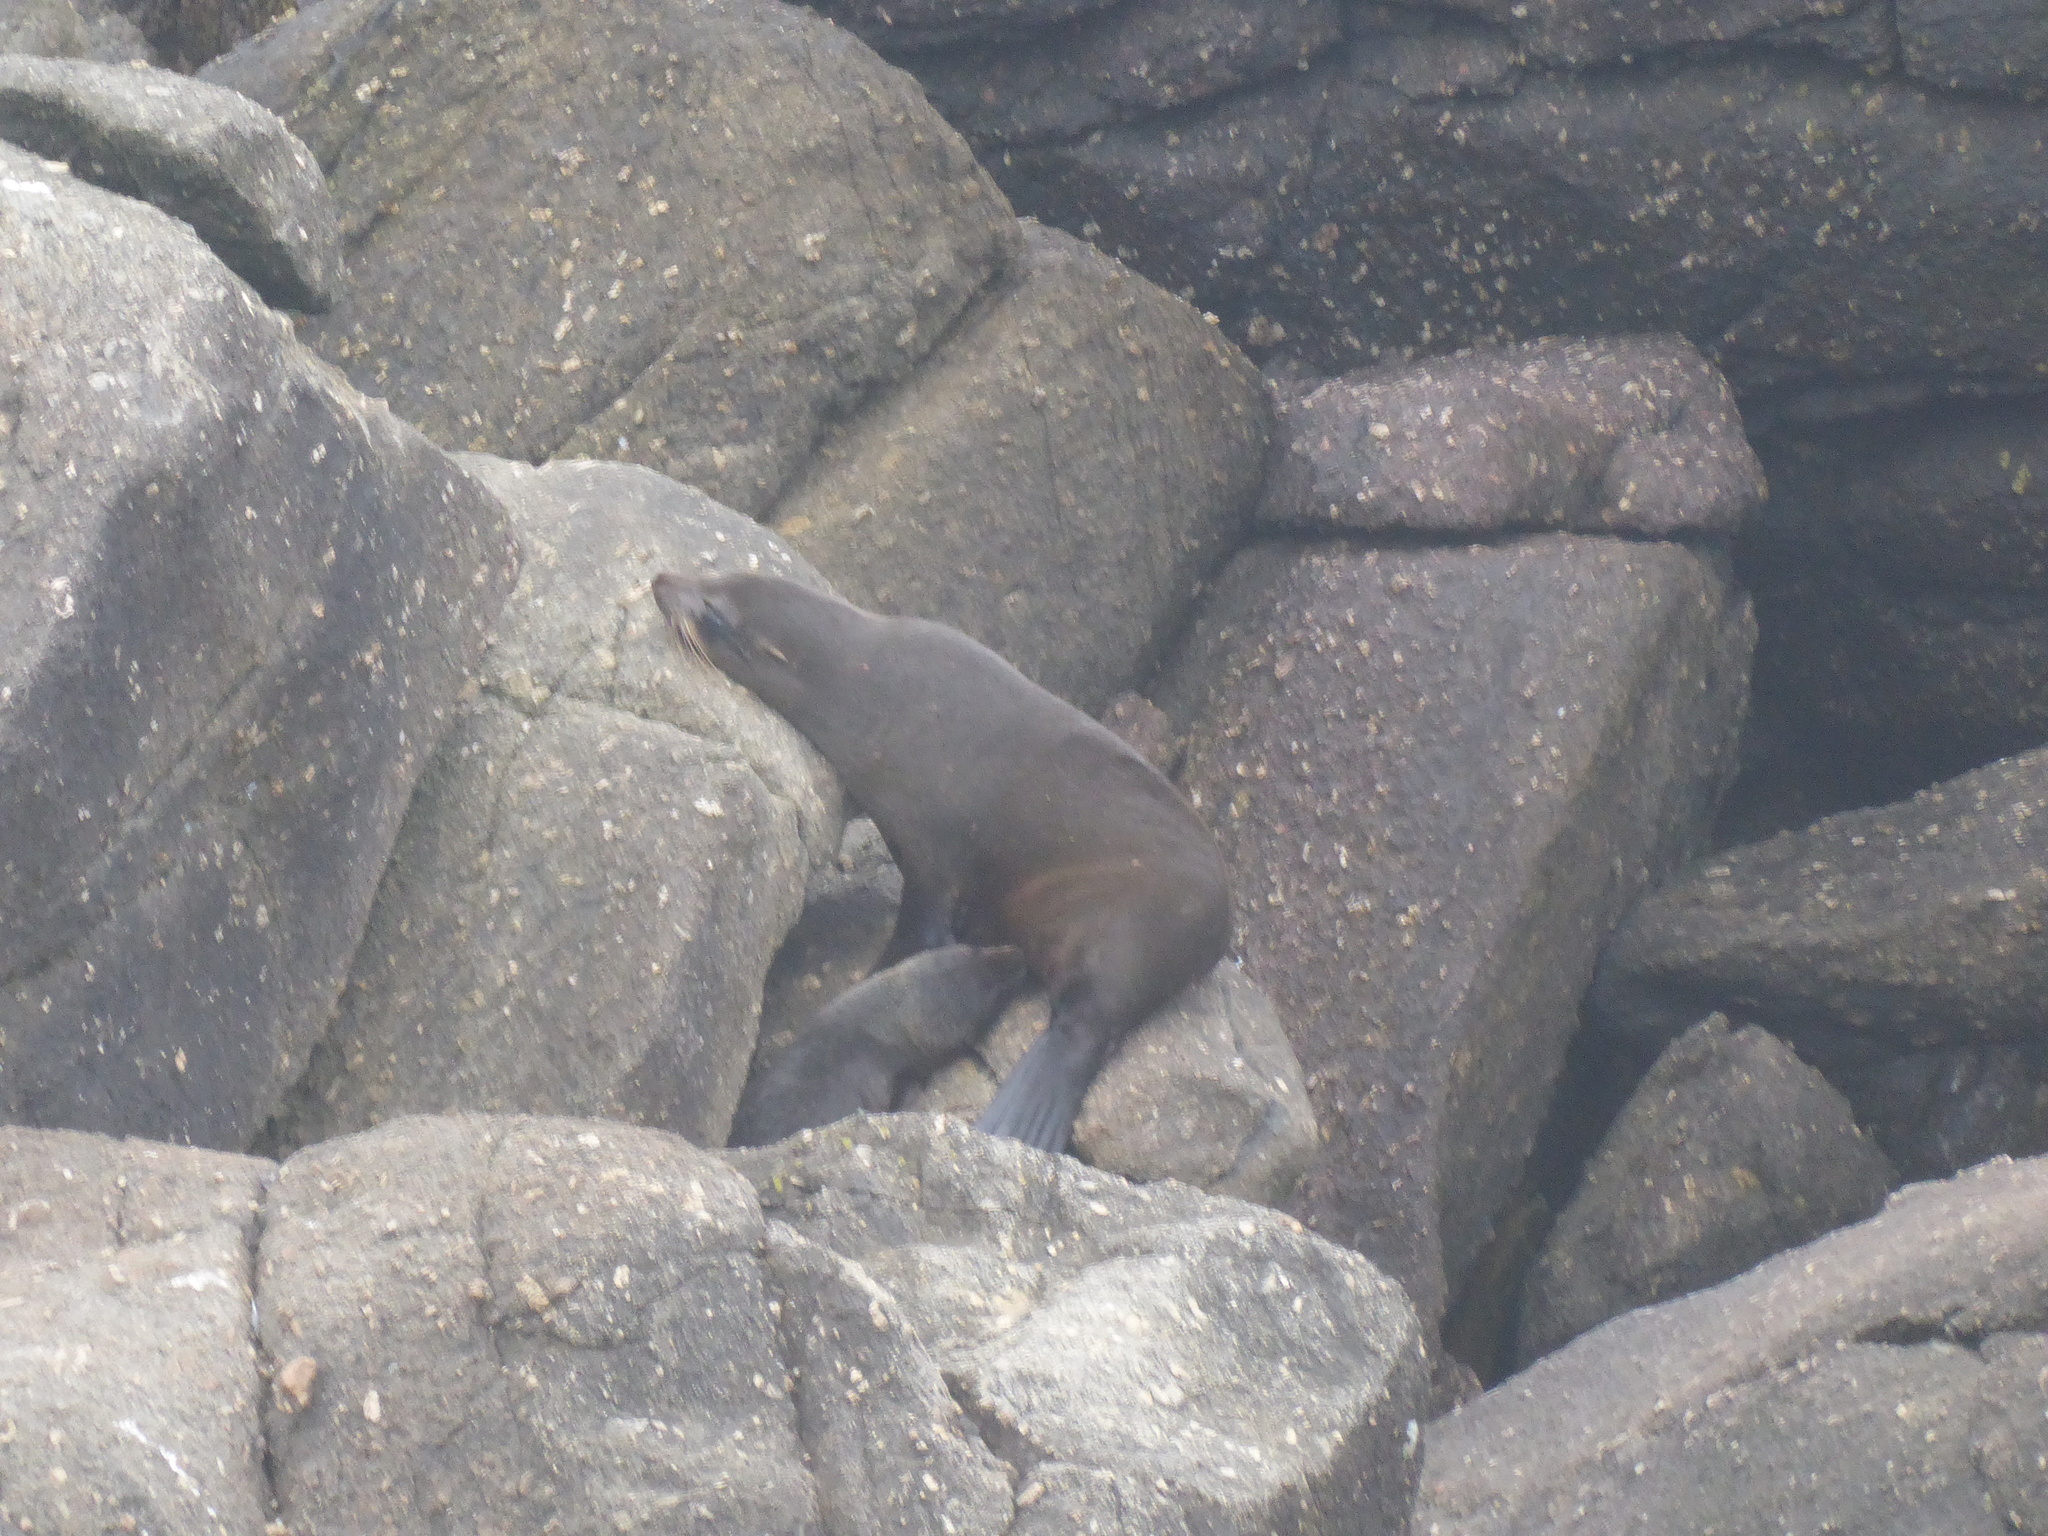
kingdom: Animalia
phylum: Chordata
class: Mammalia
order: Carnivora
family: Otariidae
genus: Arctocephalus
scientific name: Arctocephalus forsteri
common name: New zealand fur seal
